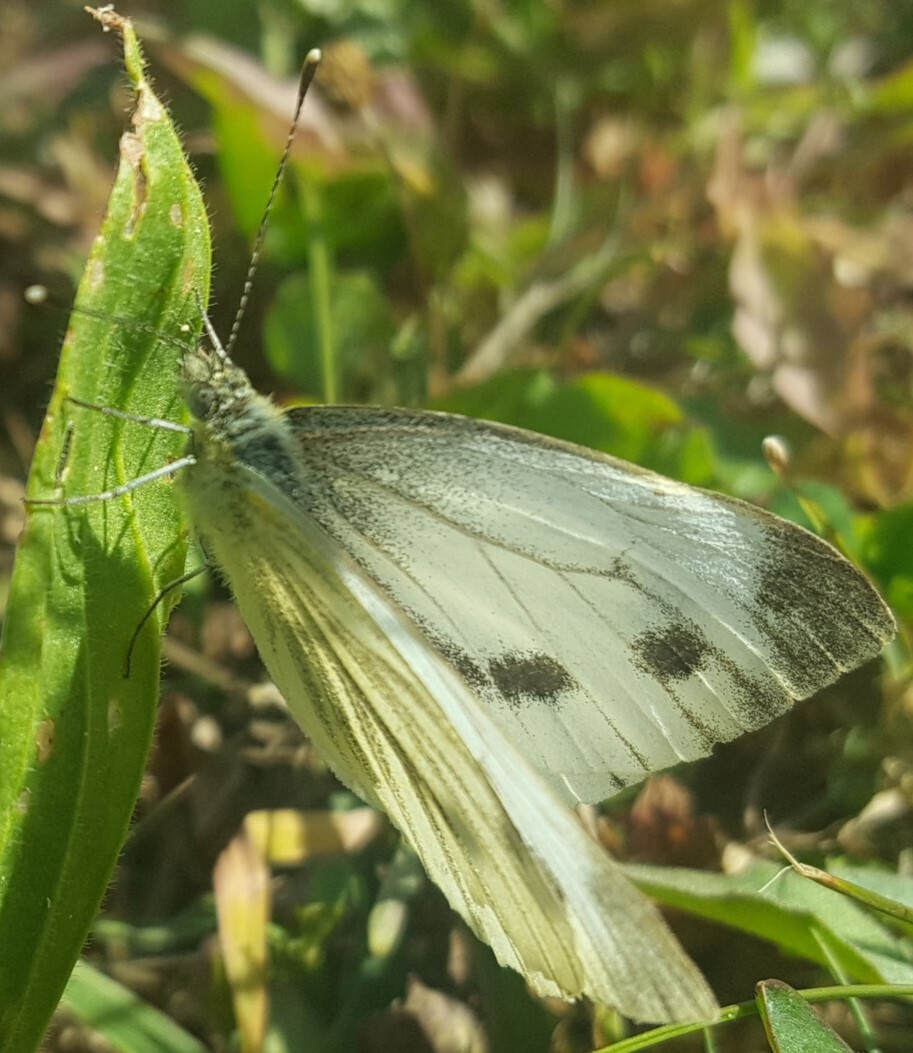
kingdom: Animalia
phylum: Arthropoda
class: Insecta
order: Lepidoptera
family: Pieridae
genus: Pieris
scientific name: Pieris napi
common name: Green-veined white
